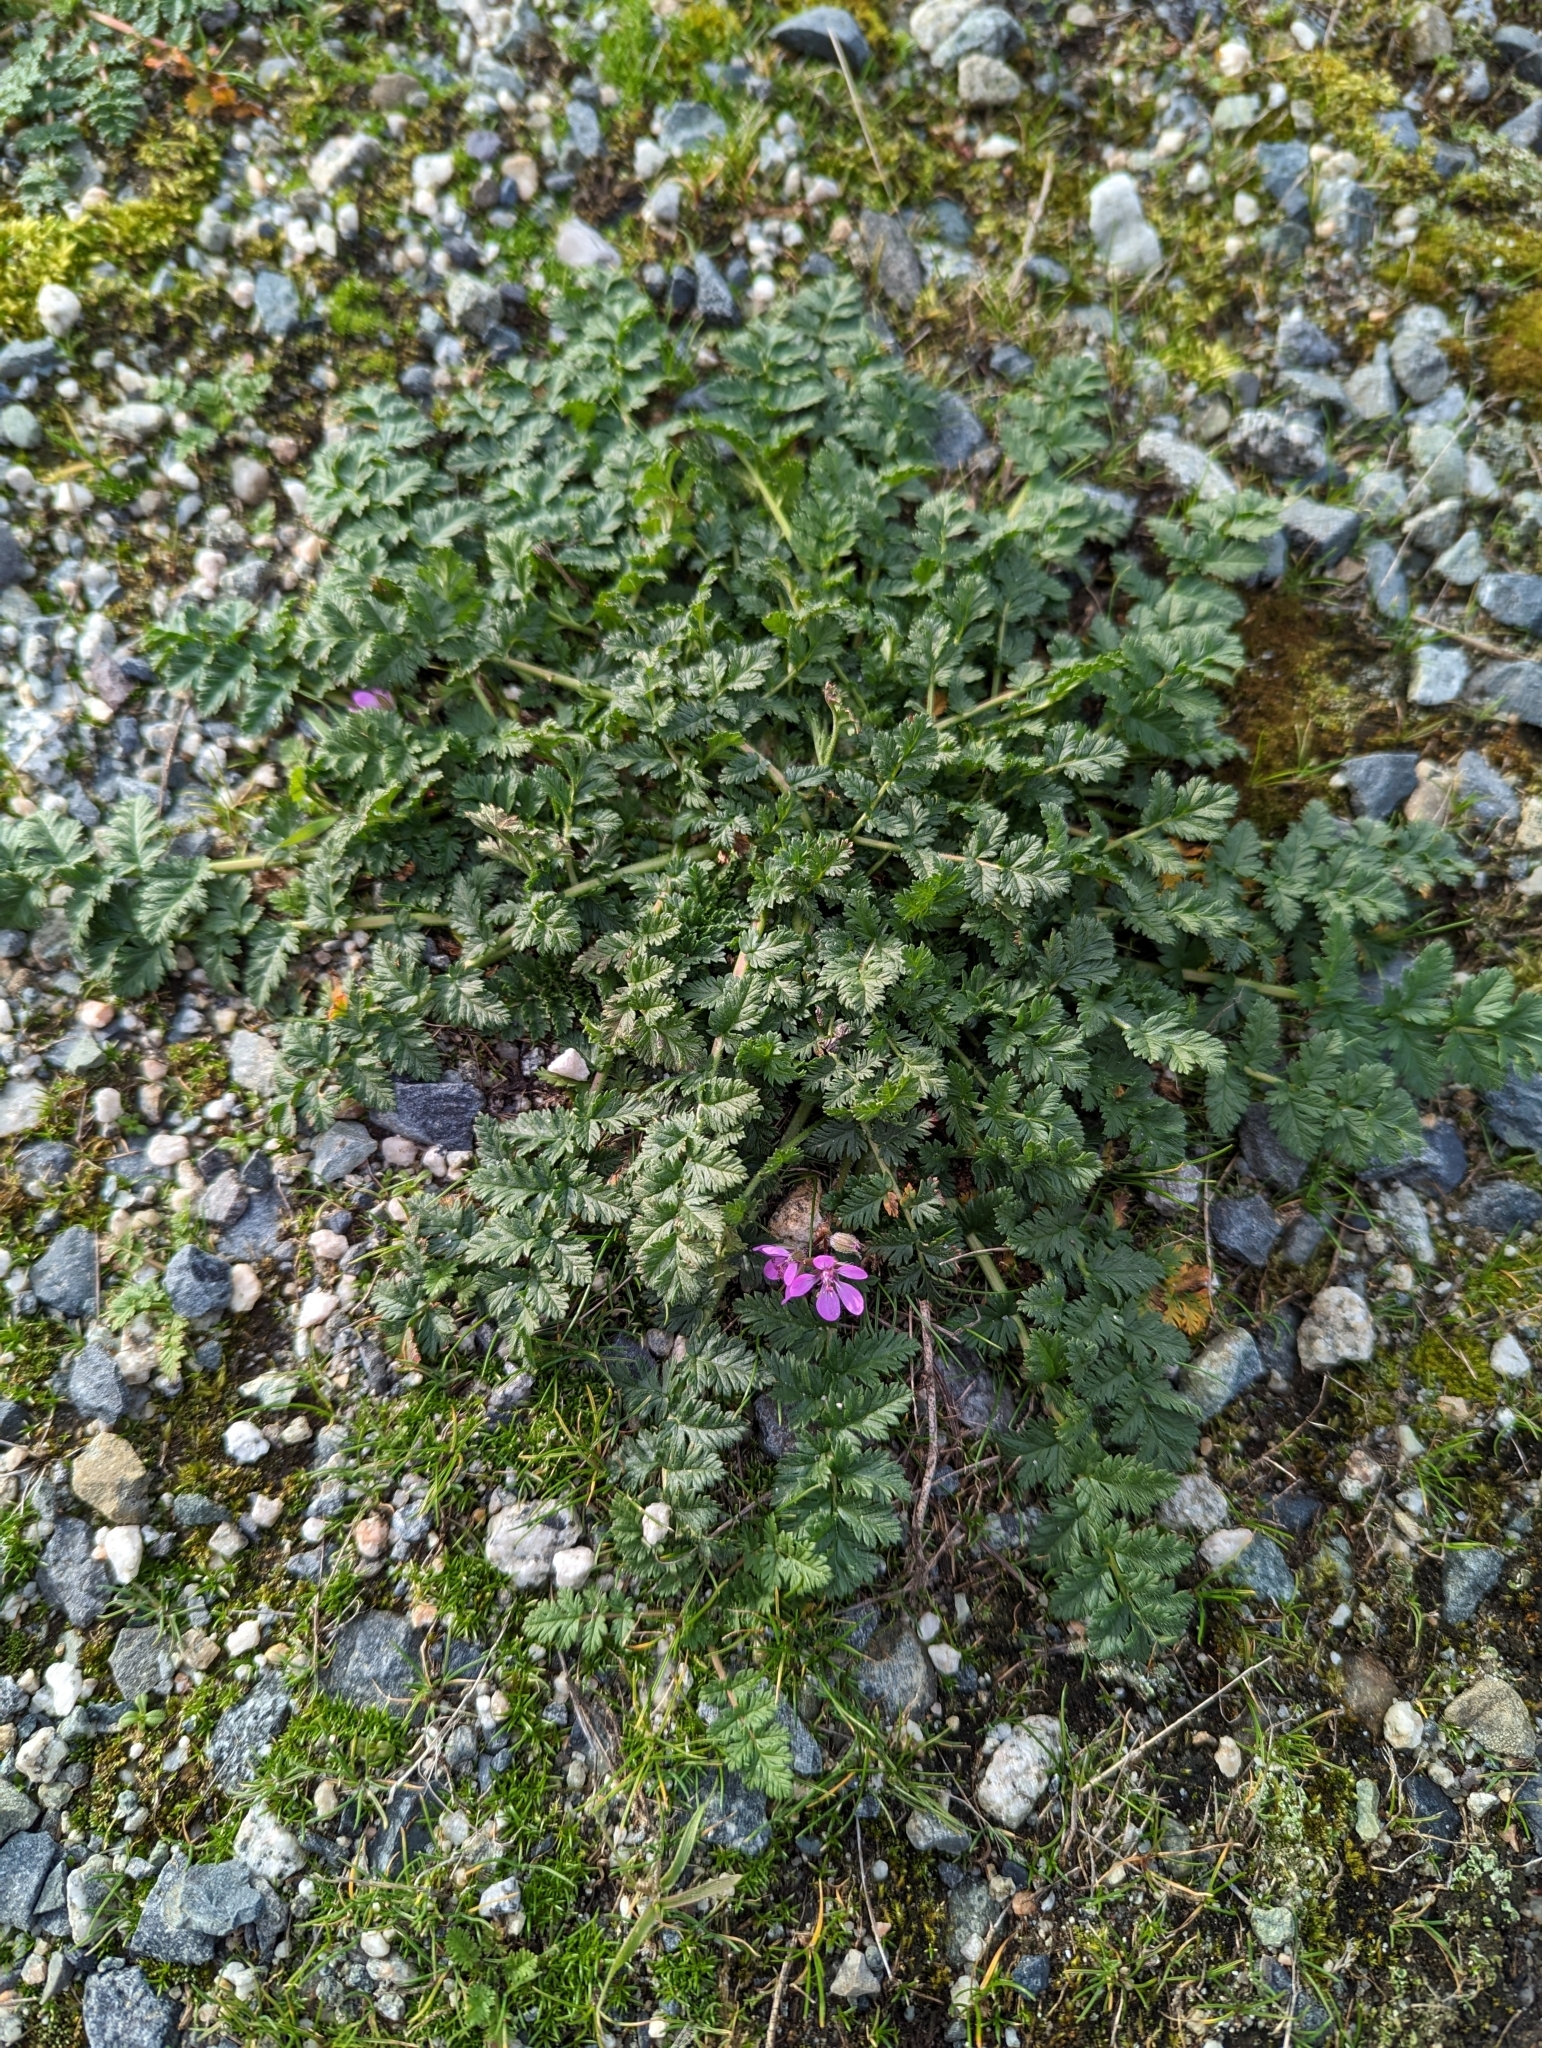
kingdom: Plantae
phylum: Tracheophyta
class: Magnoliopsida
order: Geraniales
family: Geraniaceae
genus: Erodium
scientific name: Erodium cicutarium
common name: Common stork's-bill
